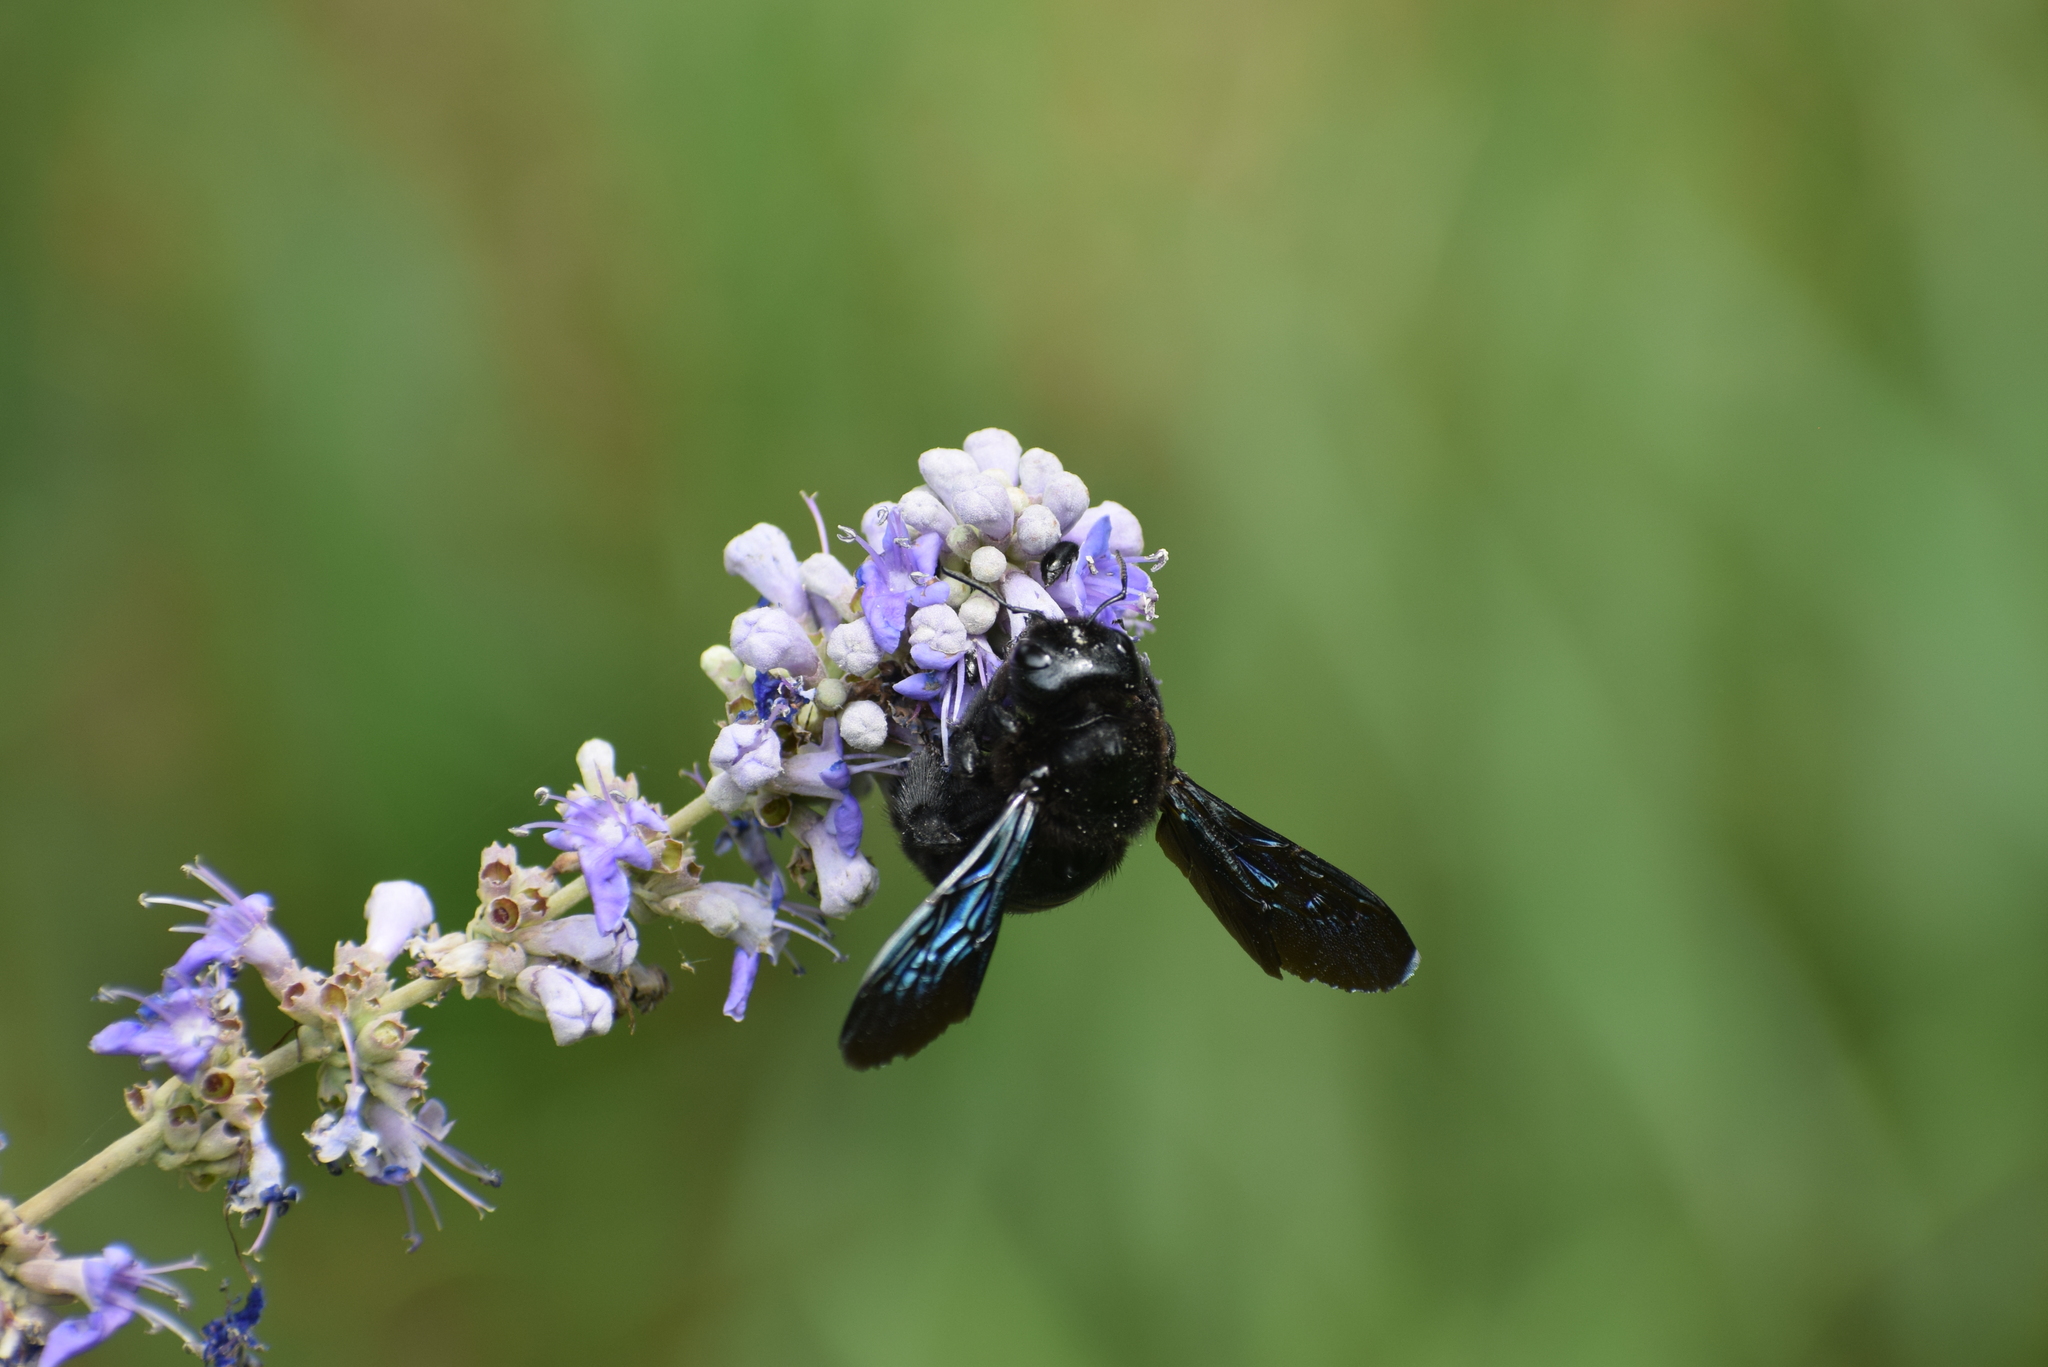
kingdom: Animalia
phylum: Arthropoda
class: Insecta
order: Hymenoptera
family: Apidae
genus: Xylocopa
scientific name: Xylocopa violacea
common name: Violet carpenter bee
